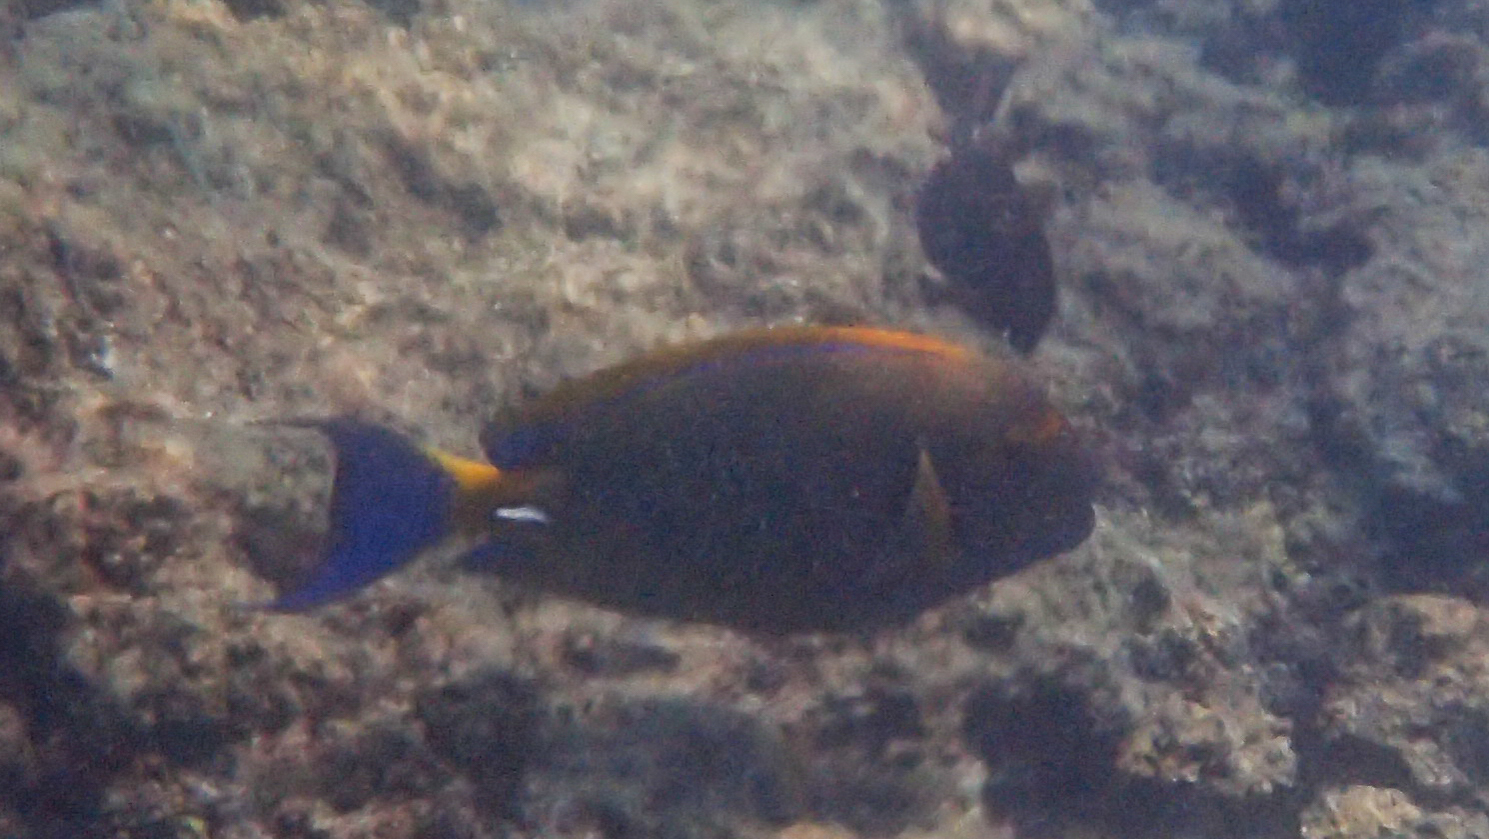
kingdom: Animalia
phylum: Chordata
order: Perciformes
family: Acanthuridae
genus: Acanthurus
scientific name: Acanthurus dussumieri
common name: Dussumier's surgeonfish
